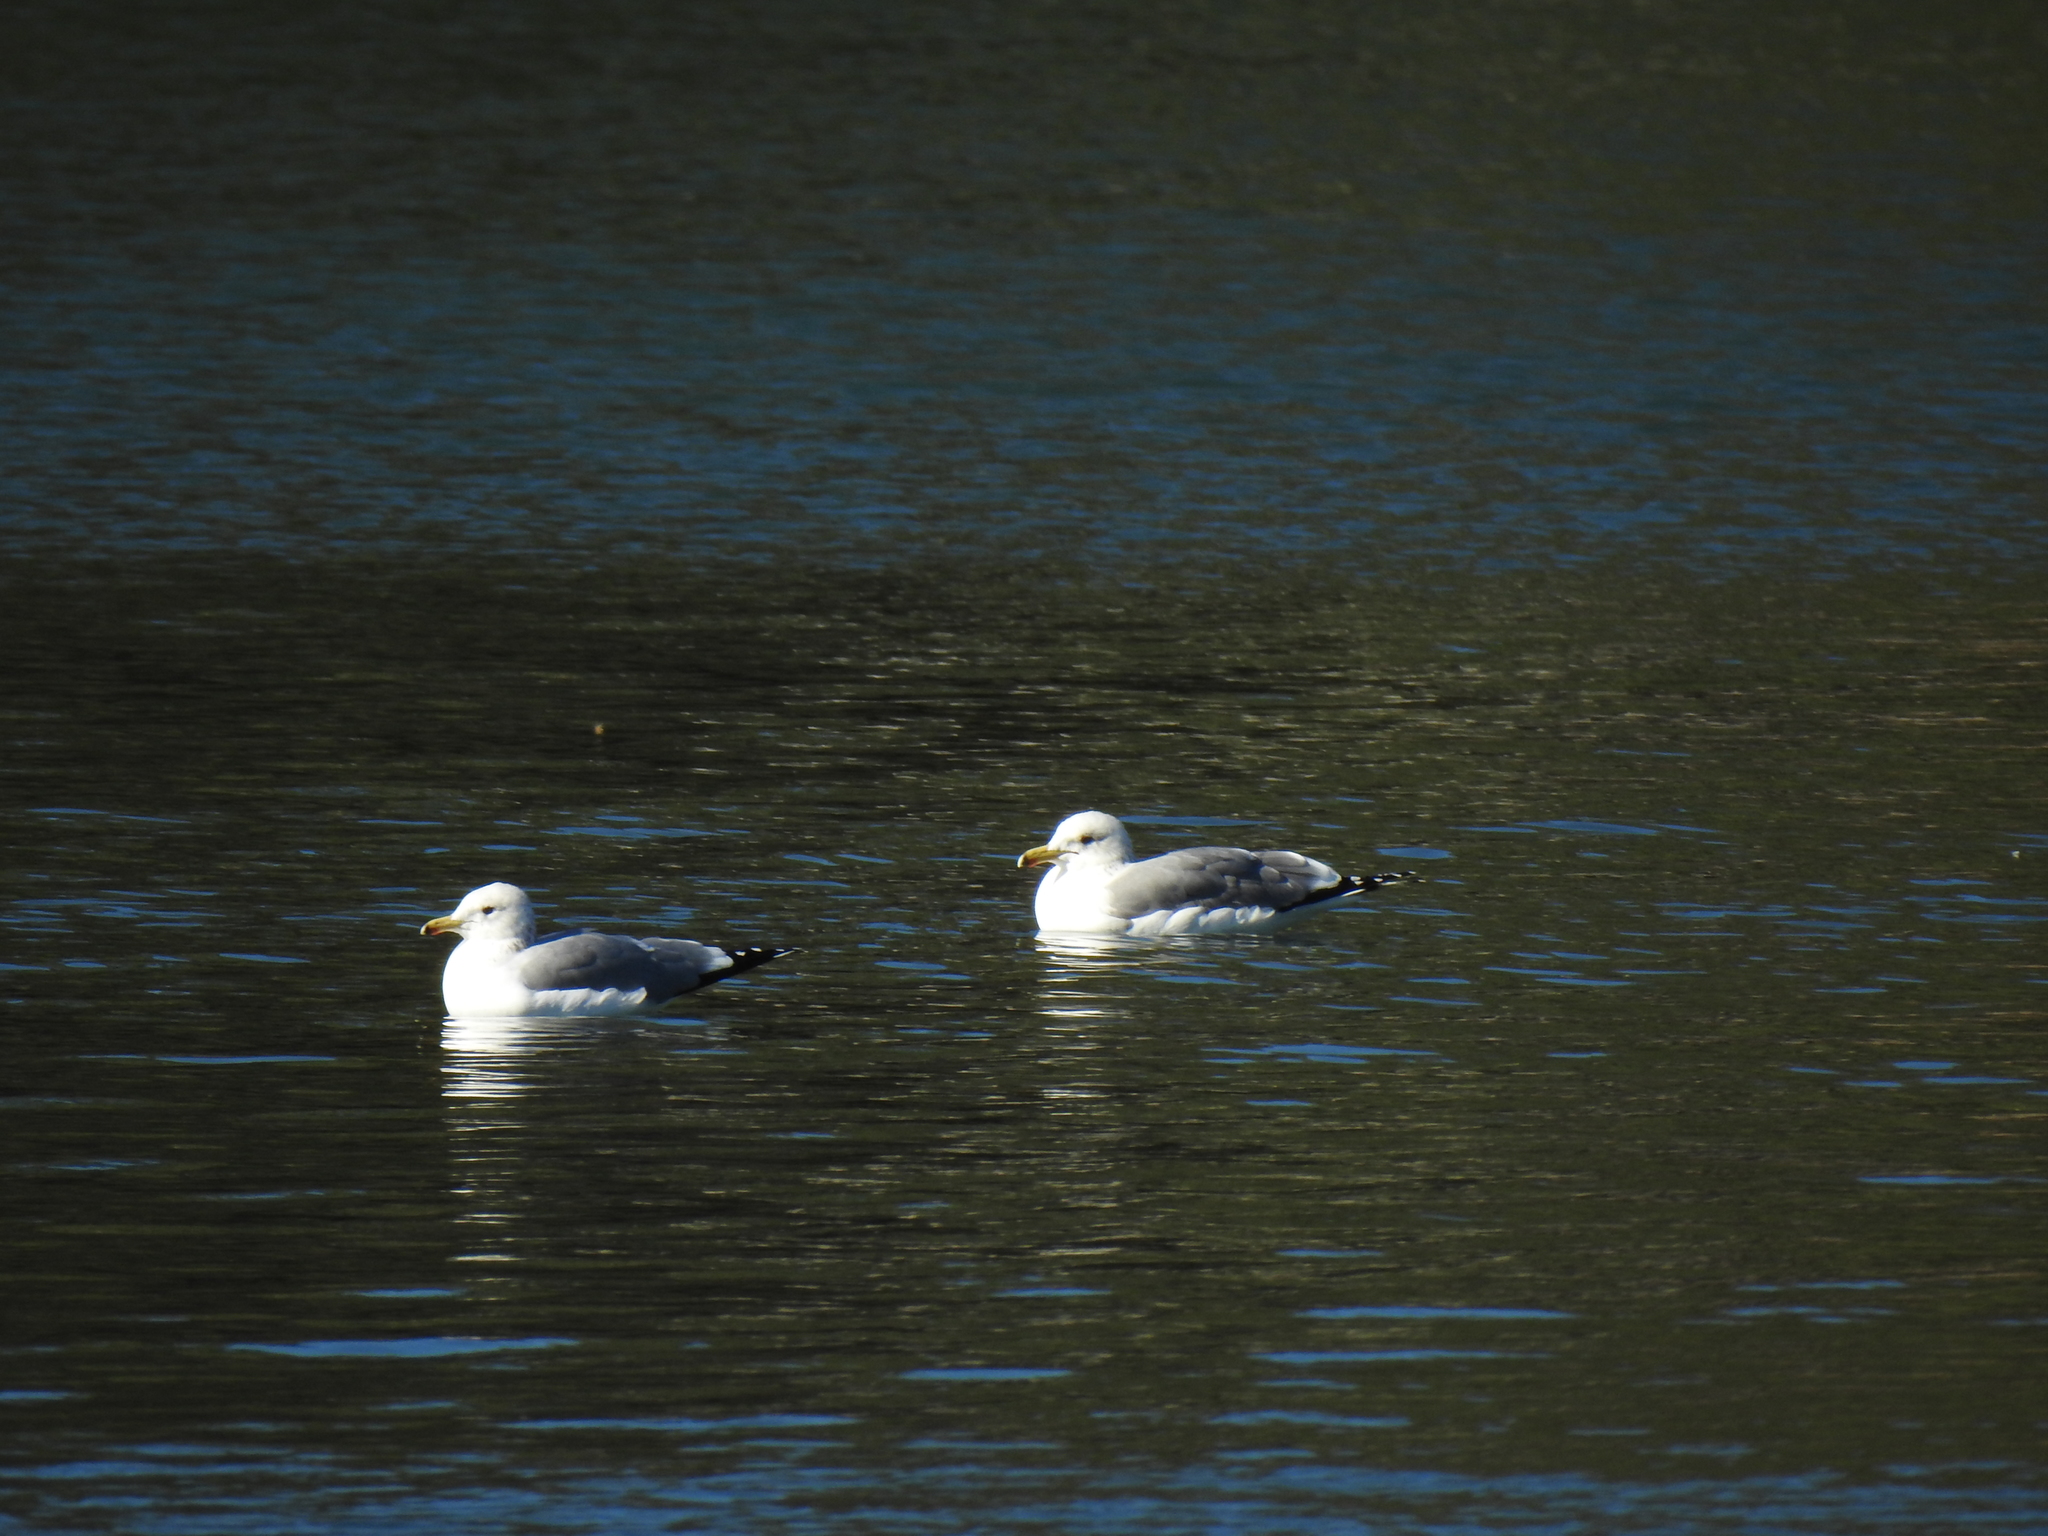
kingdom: Animalia
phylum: Chordata
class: Aves
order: Charadriiformes
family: Laridae
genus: Larus
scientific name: Larus californicus
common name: California gull
